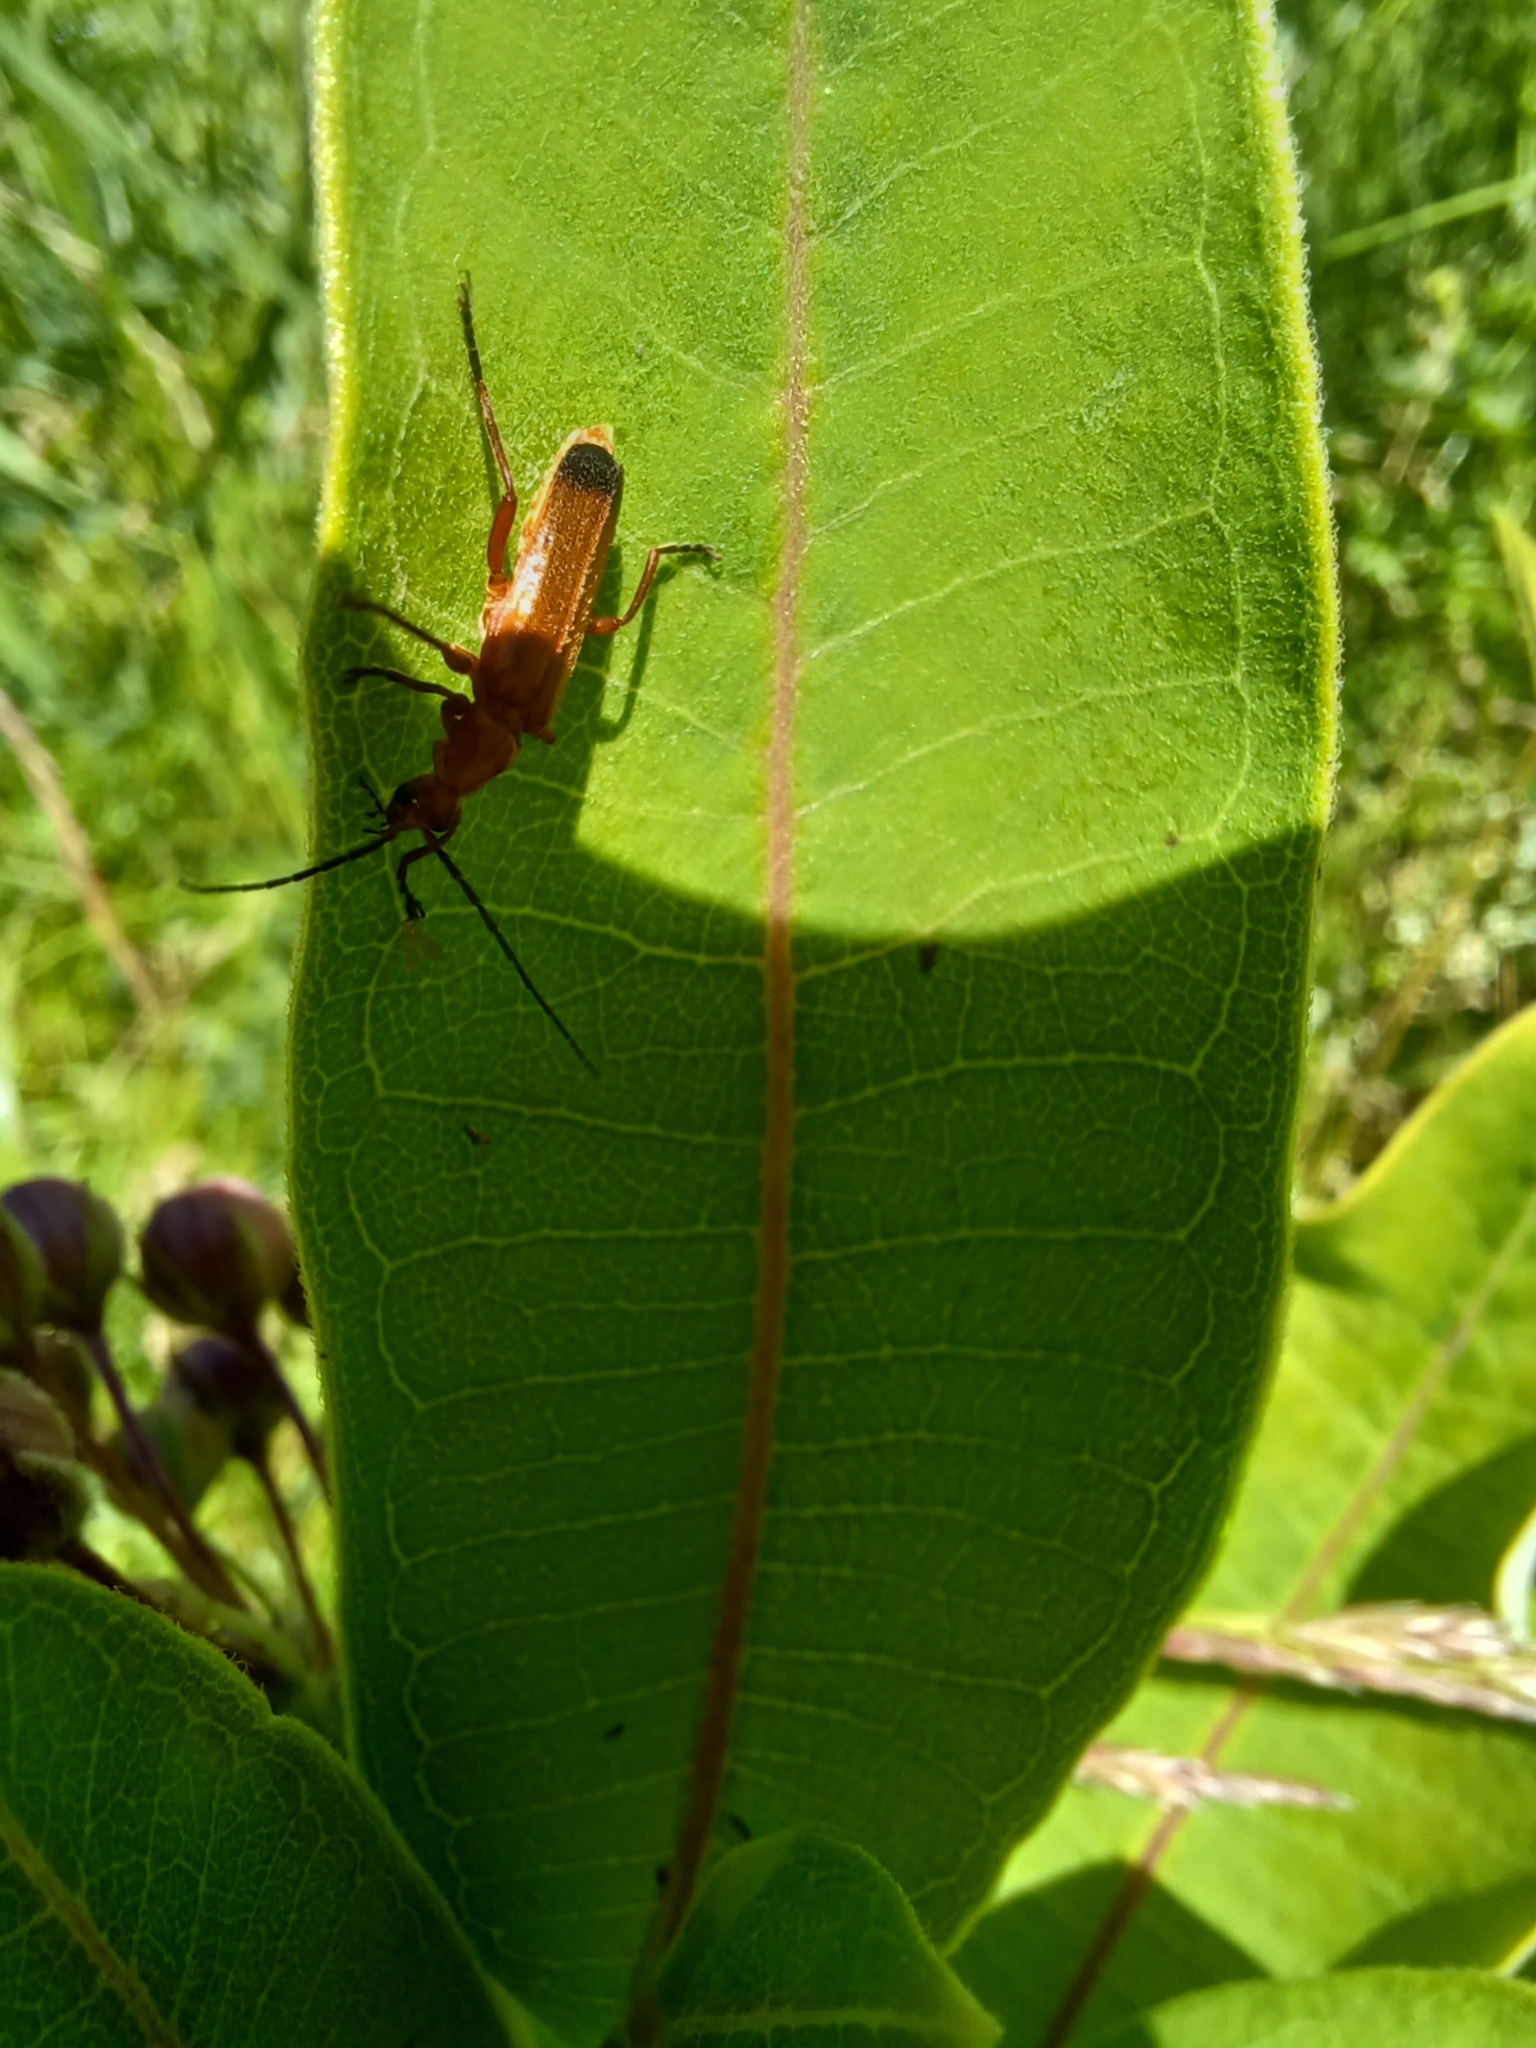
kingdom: Animalia
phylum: Arthropoda
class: Insecta
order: Coleoptera
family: Cantharidae
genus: Rhagonycha
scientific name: Rhagonycha fulva
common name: Common red soldier beetle
